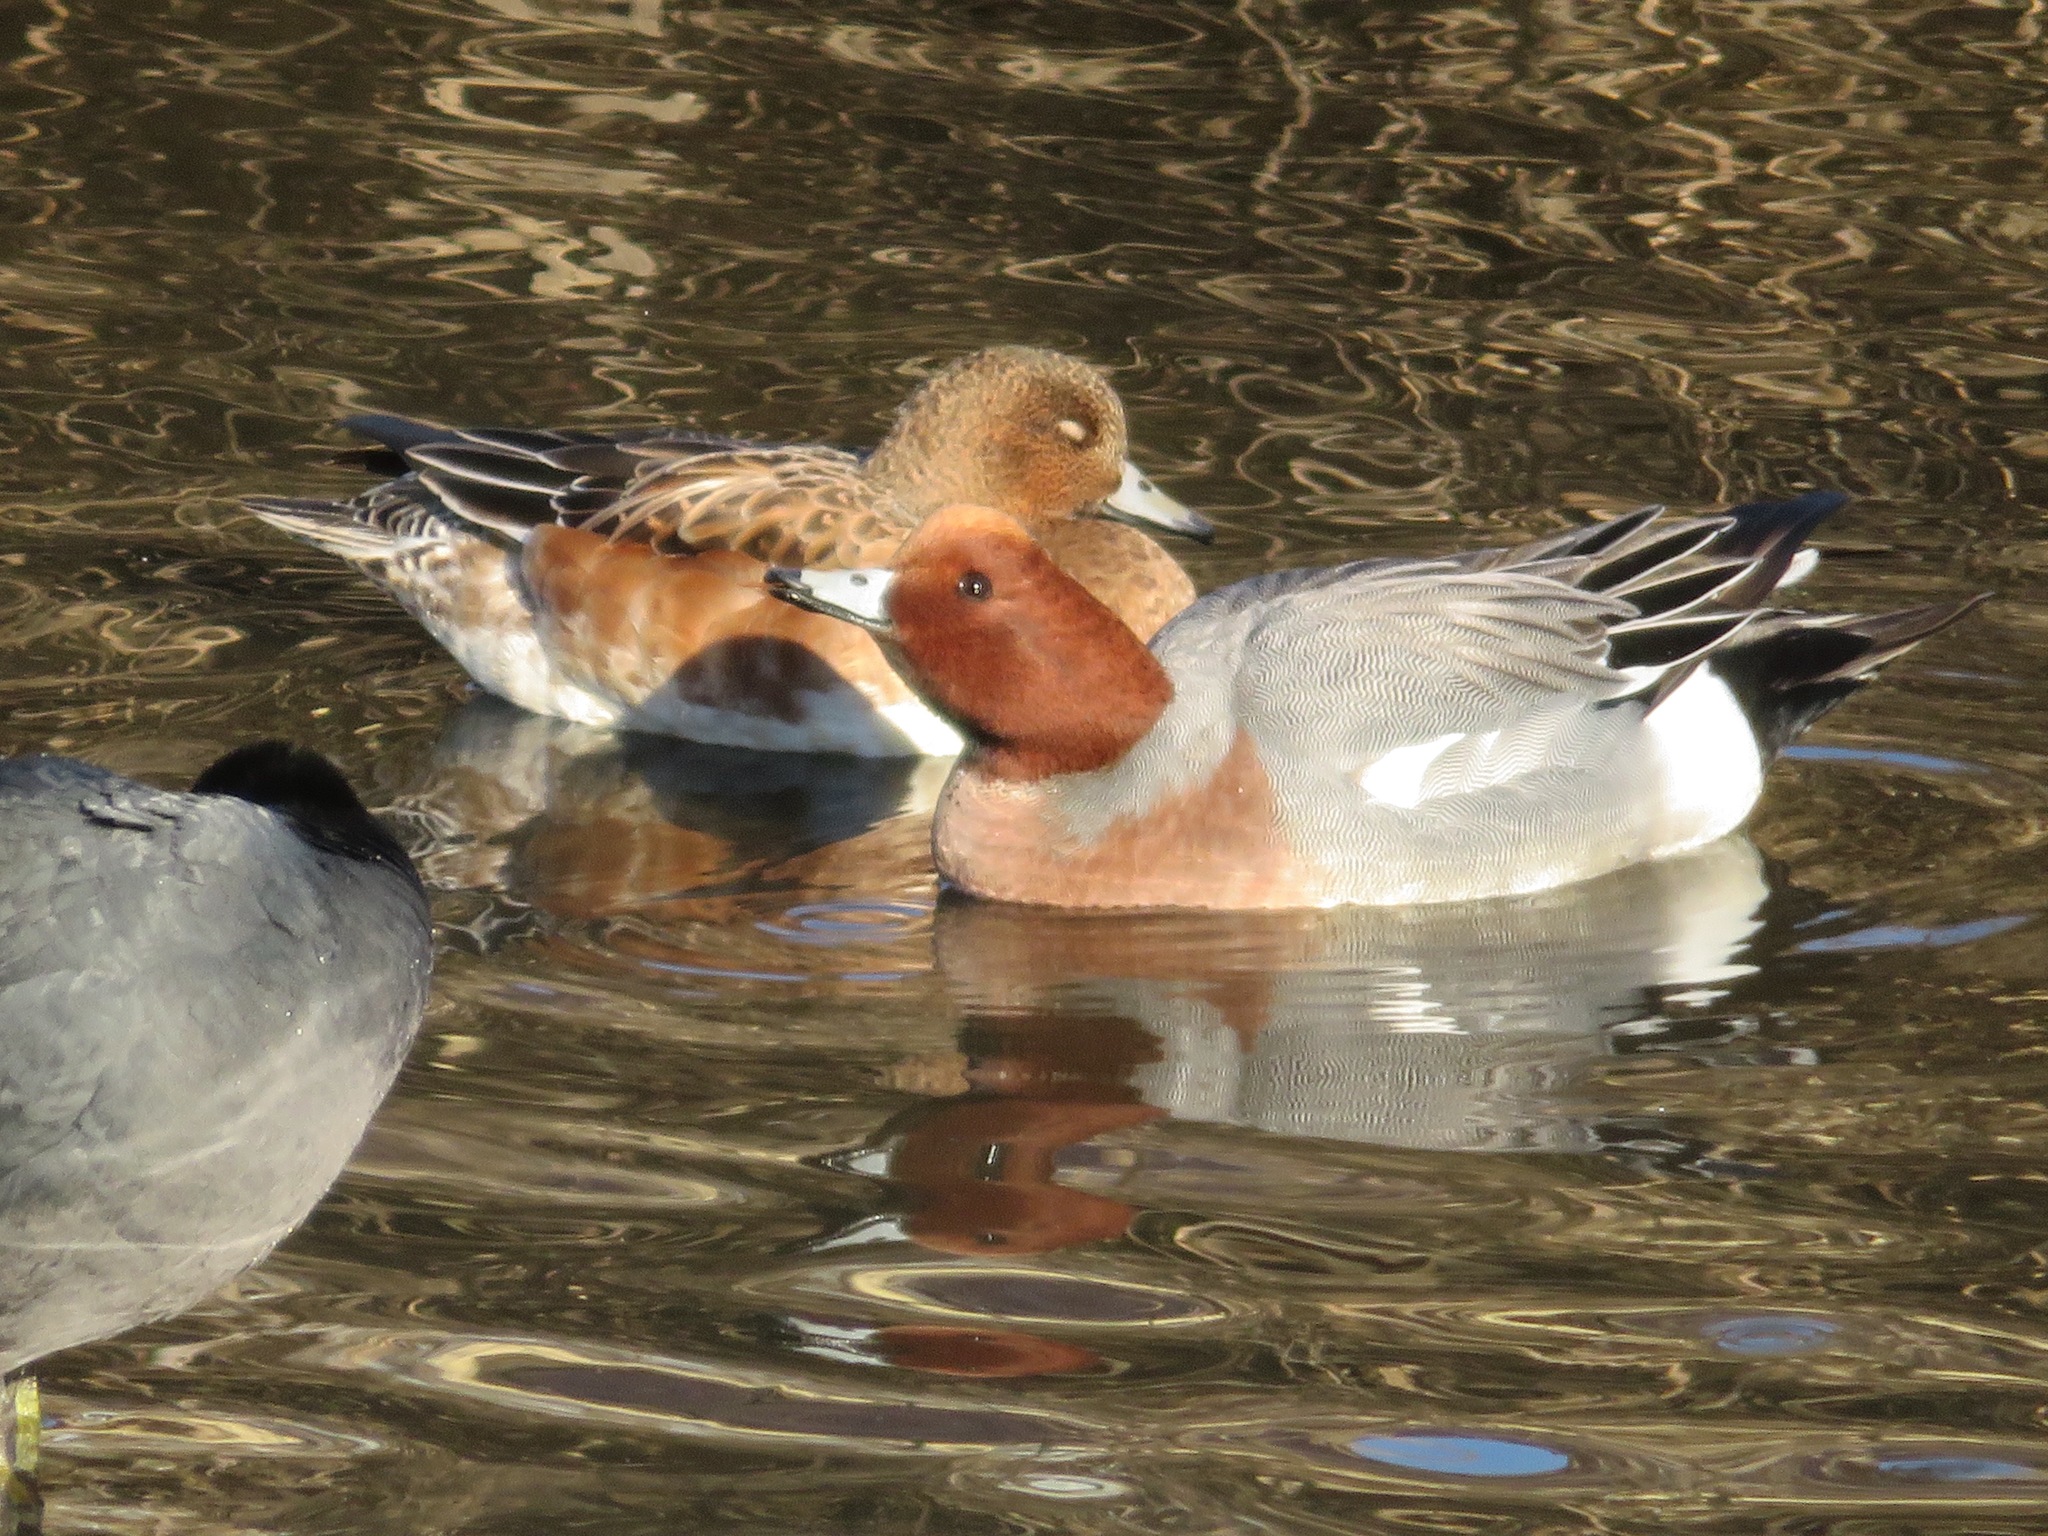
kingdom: Animalia
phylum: Chordata
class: Aves
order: Anseriformes
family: Anatidae
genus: Mareca
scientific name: Mareca penelope
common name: Eurasian wigeon
